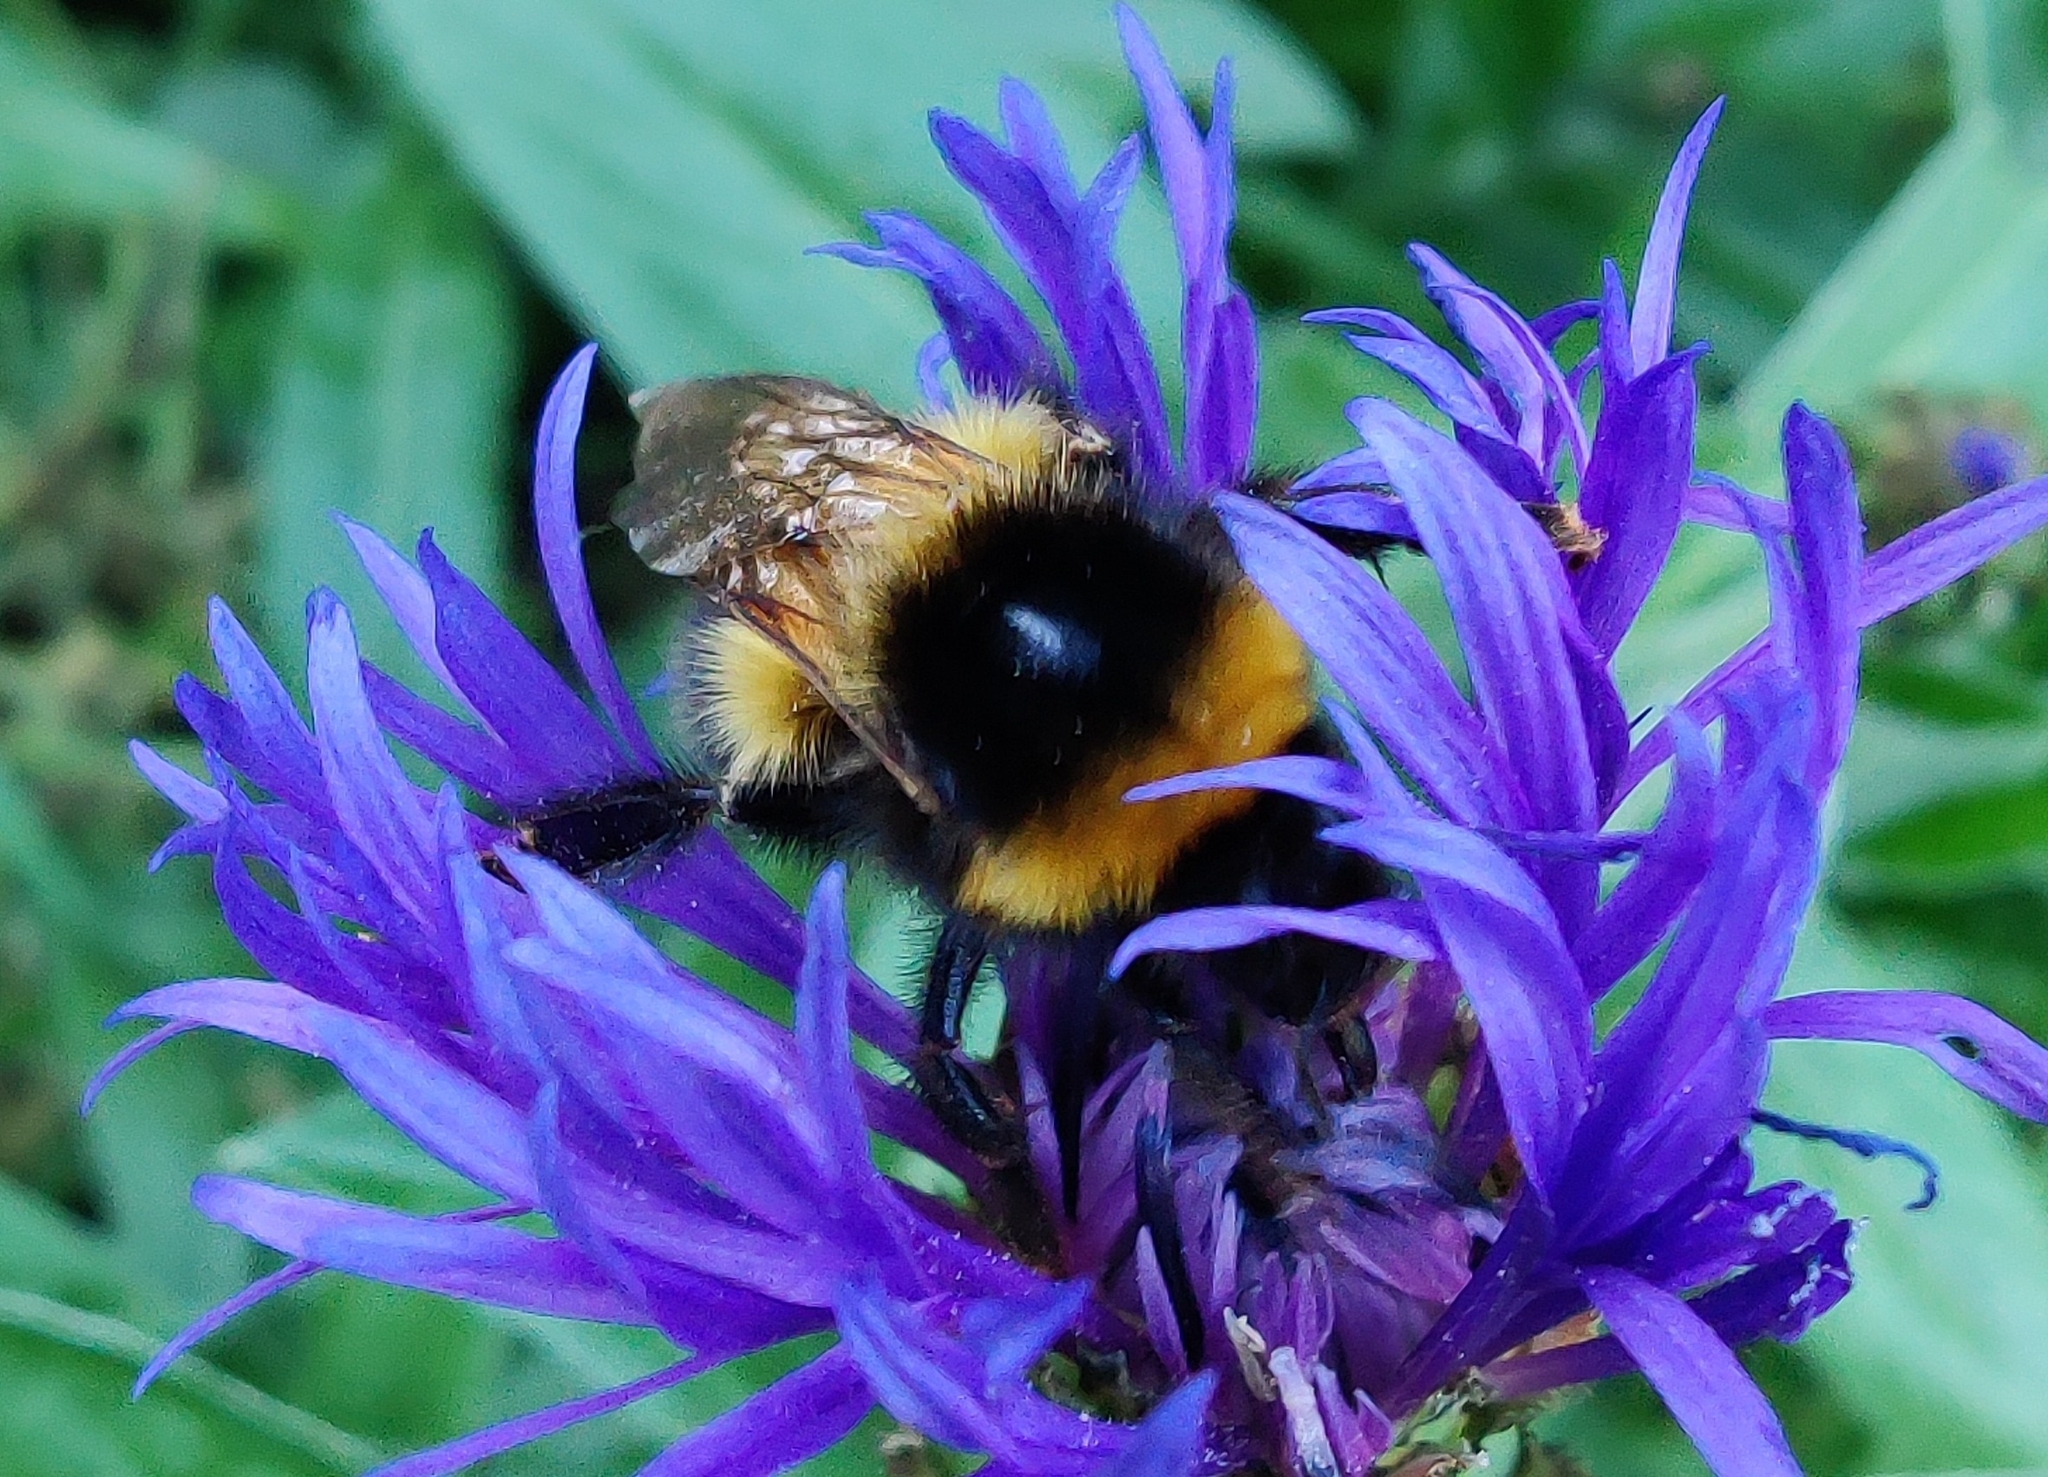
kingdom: Animalia
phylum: Arthropoda
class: Insecta
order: Hymenoptera
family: Apidae
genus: Bombus
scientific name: Bombus hortorum
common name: Garden bumblebee
